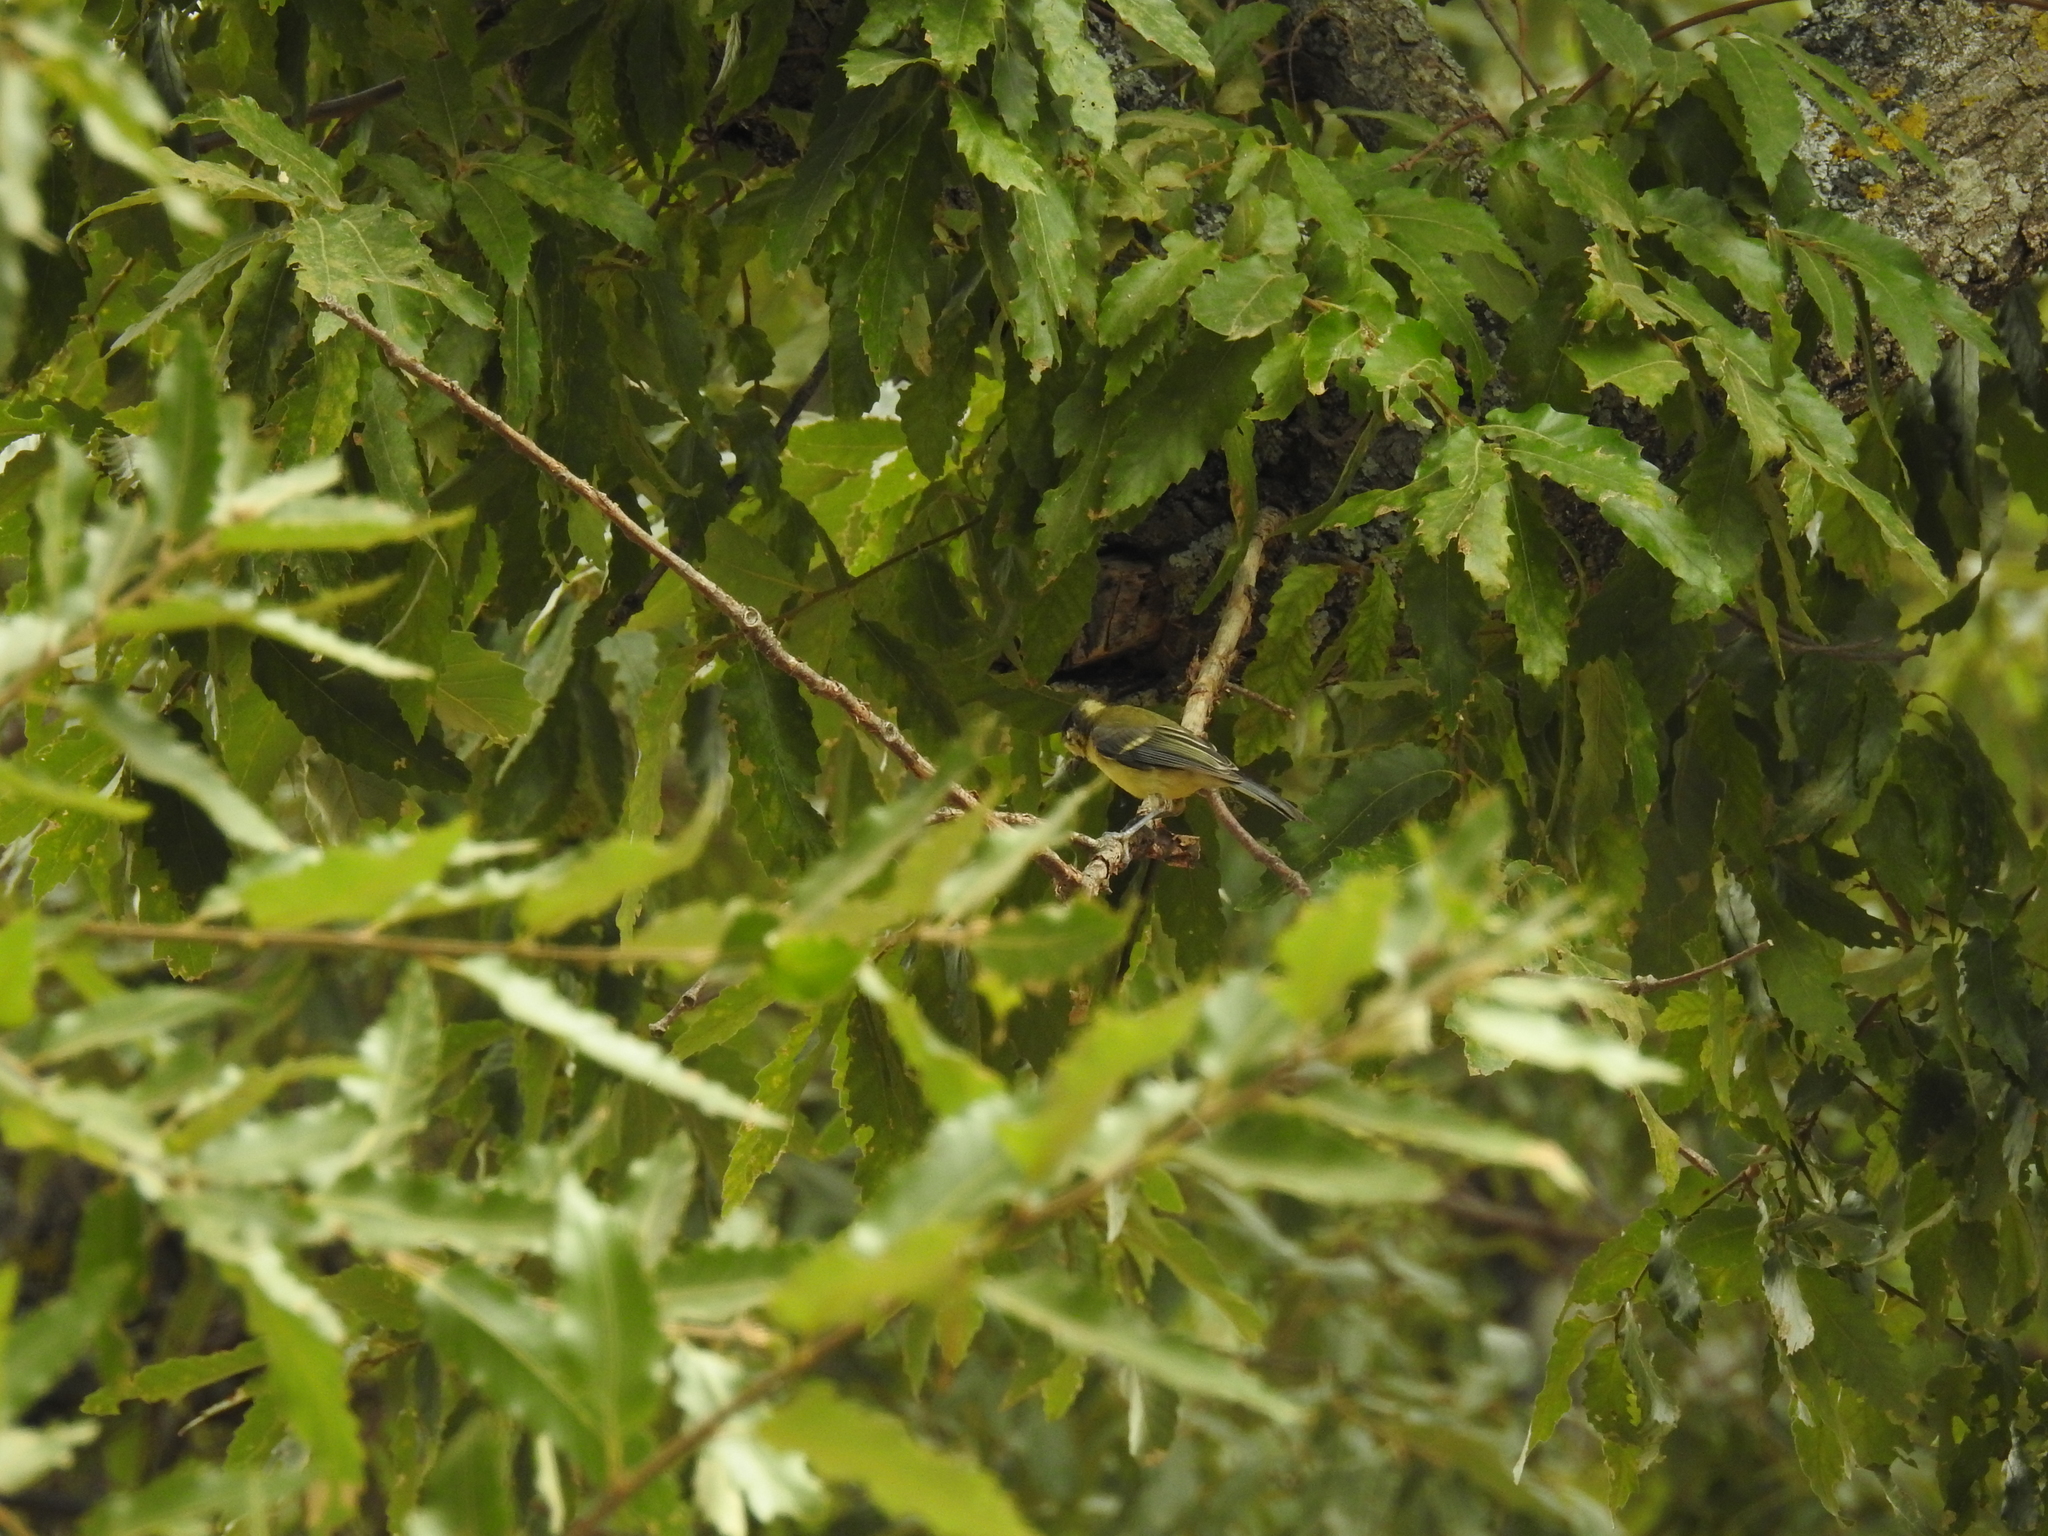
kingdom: Animalia
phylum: Chordata
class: Aves
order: Passeriformes
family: Paridae
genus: Parus
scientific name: Parus major
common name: Great tit
